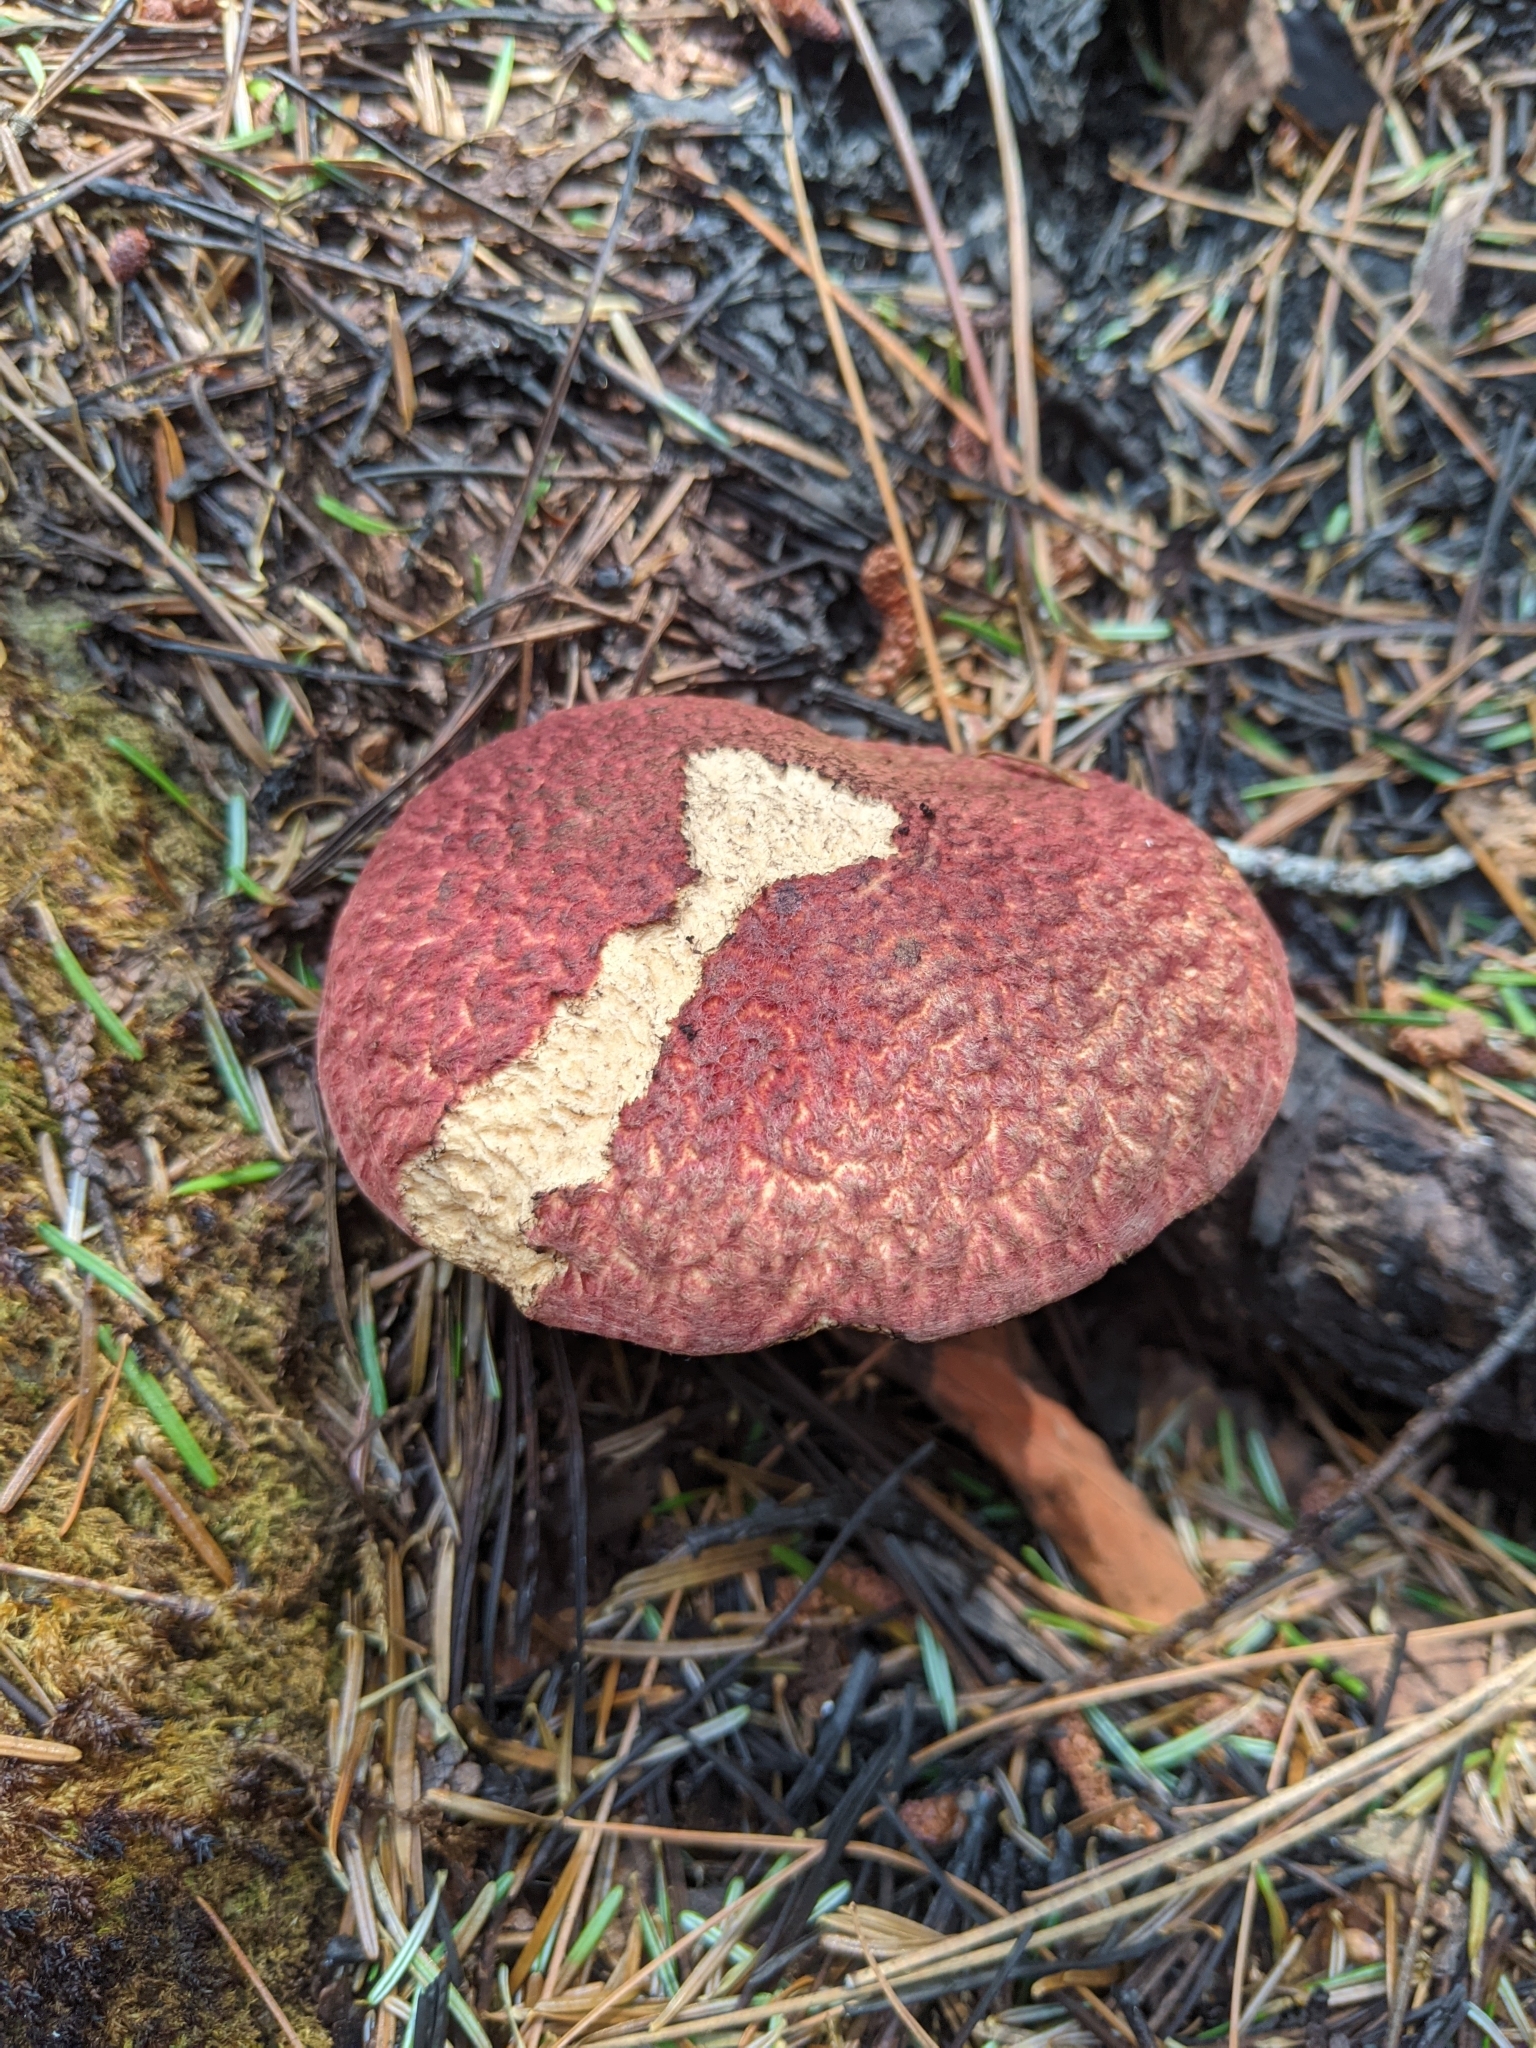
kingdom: Fungi
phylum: Basidiomycota
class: Agaricomycetes
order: Boletales
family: Suillaceae
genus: Suillus
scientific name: Suillus spraguei
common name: Painted suillus
